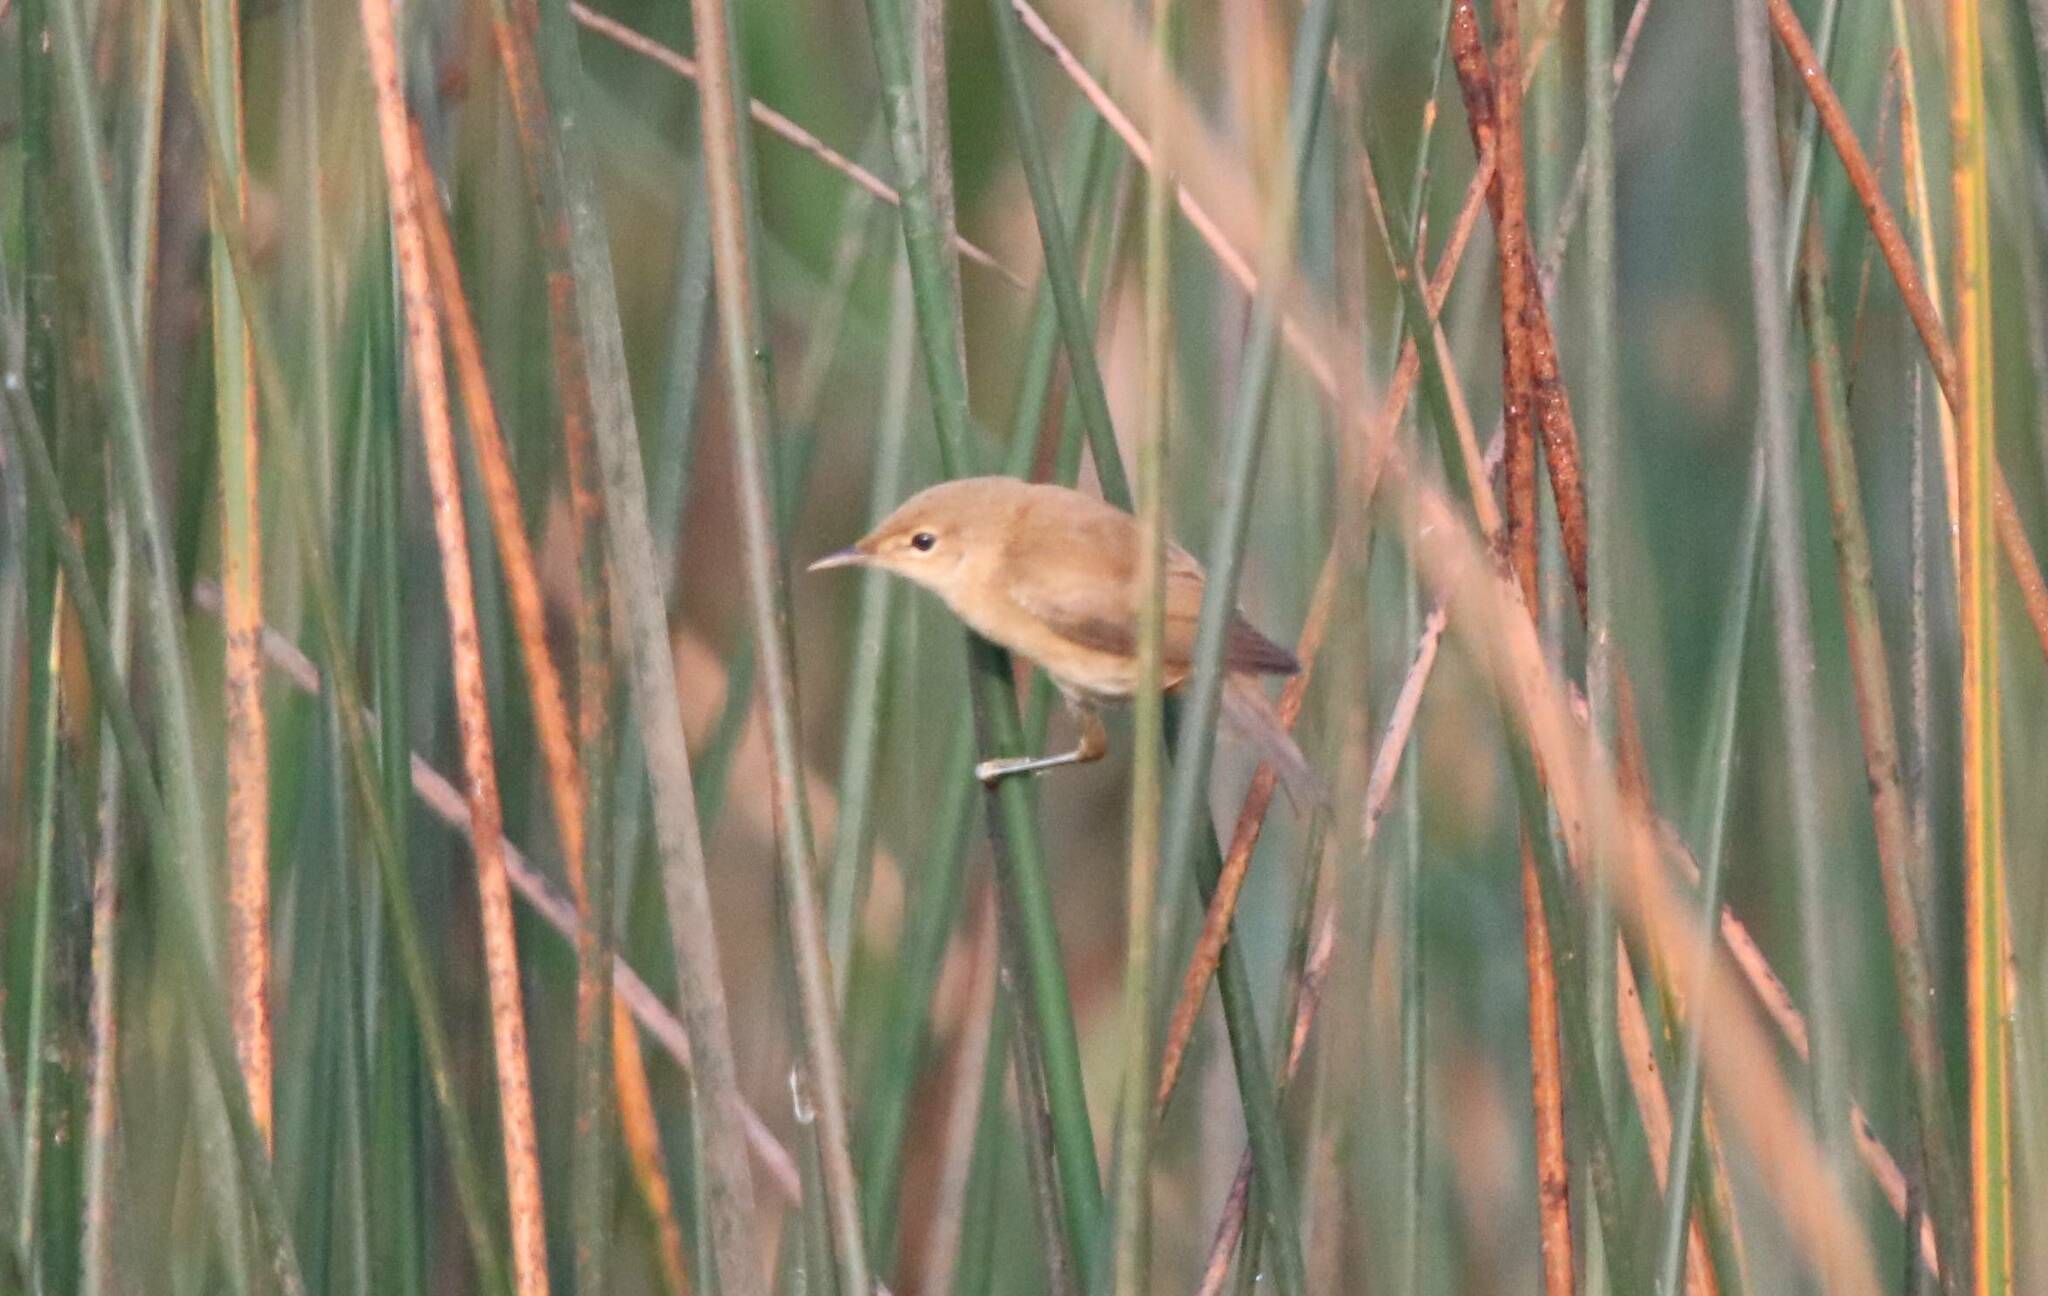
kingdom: Animalia
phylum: Chordata
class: Aves
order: Passeriformes
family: Acrocephalidae
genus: Acrocephalus
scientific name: Acrocephalus scirpaceus
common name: Eurasian reed warbler
